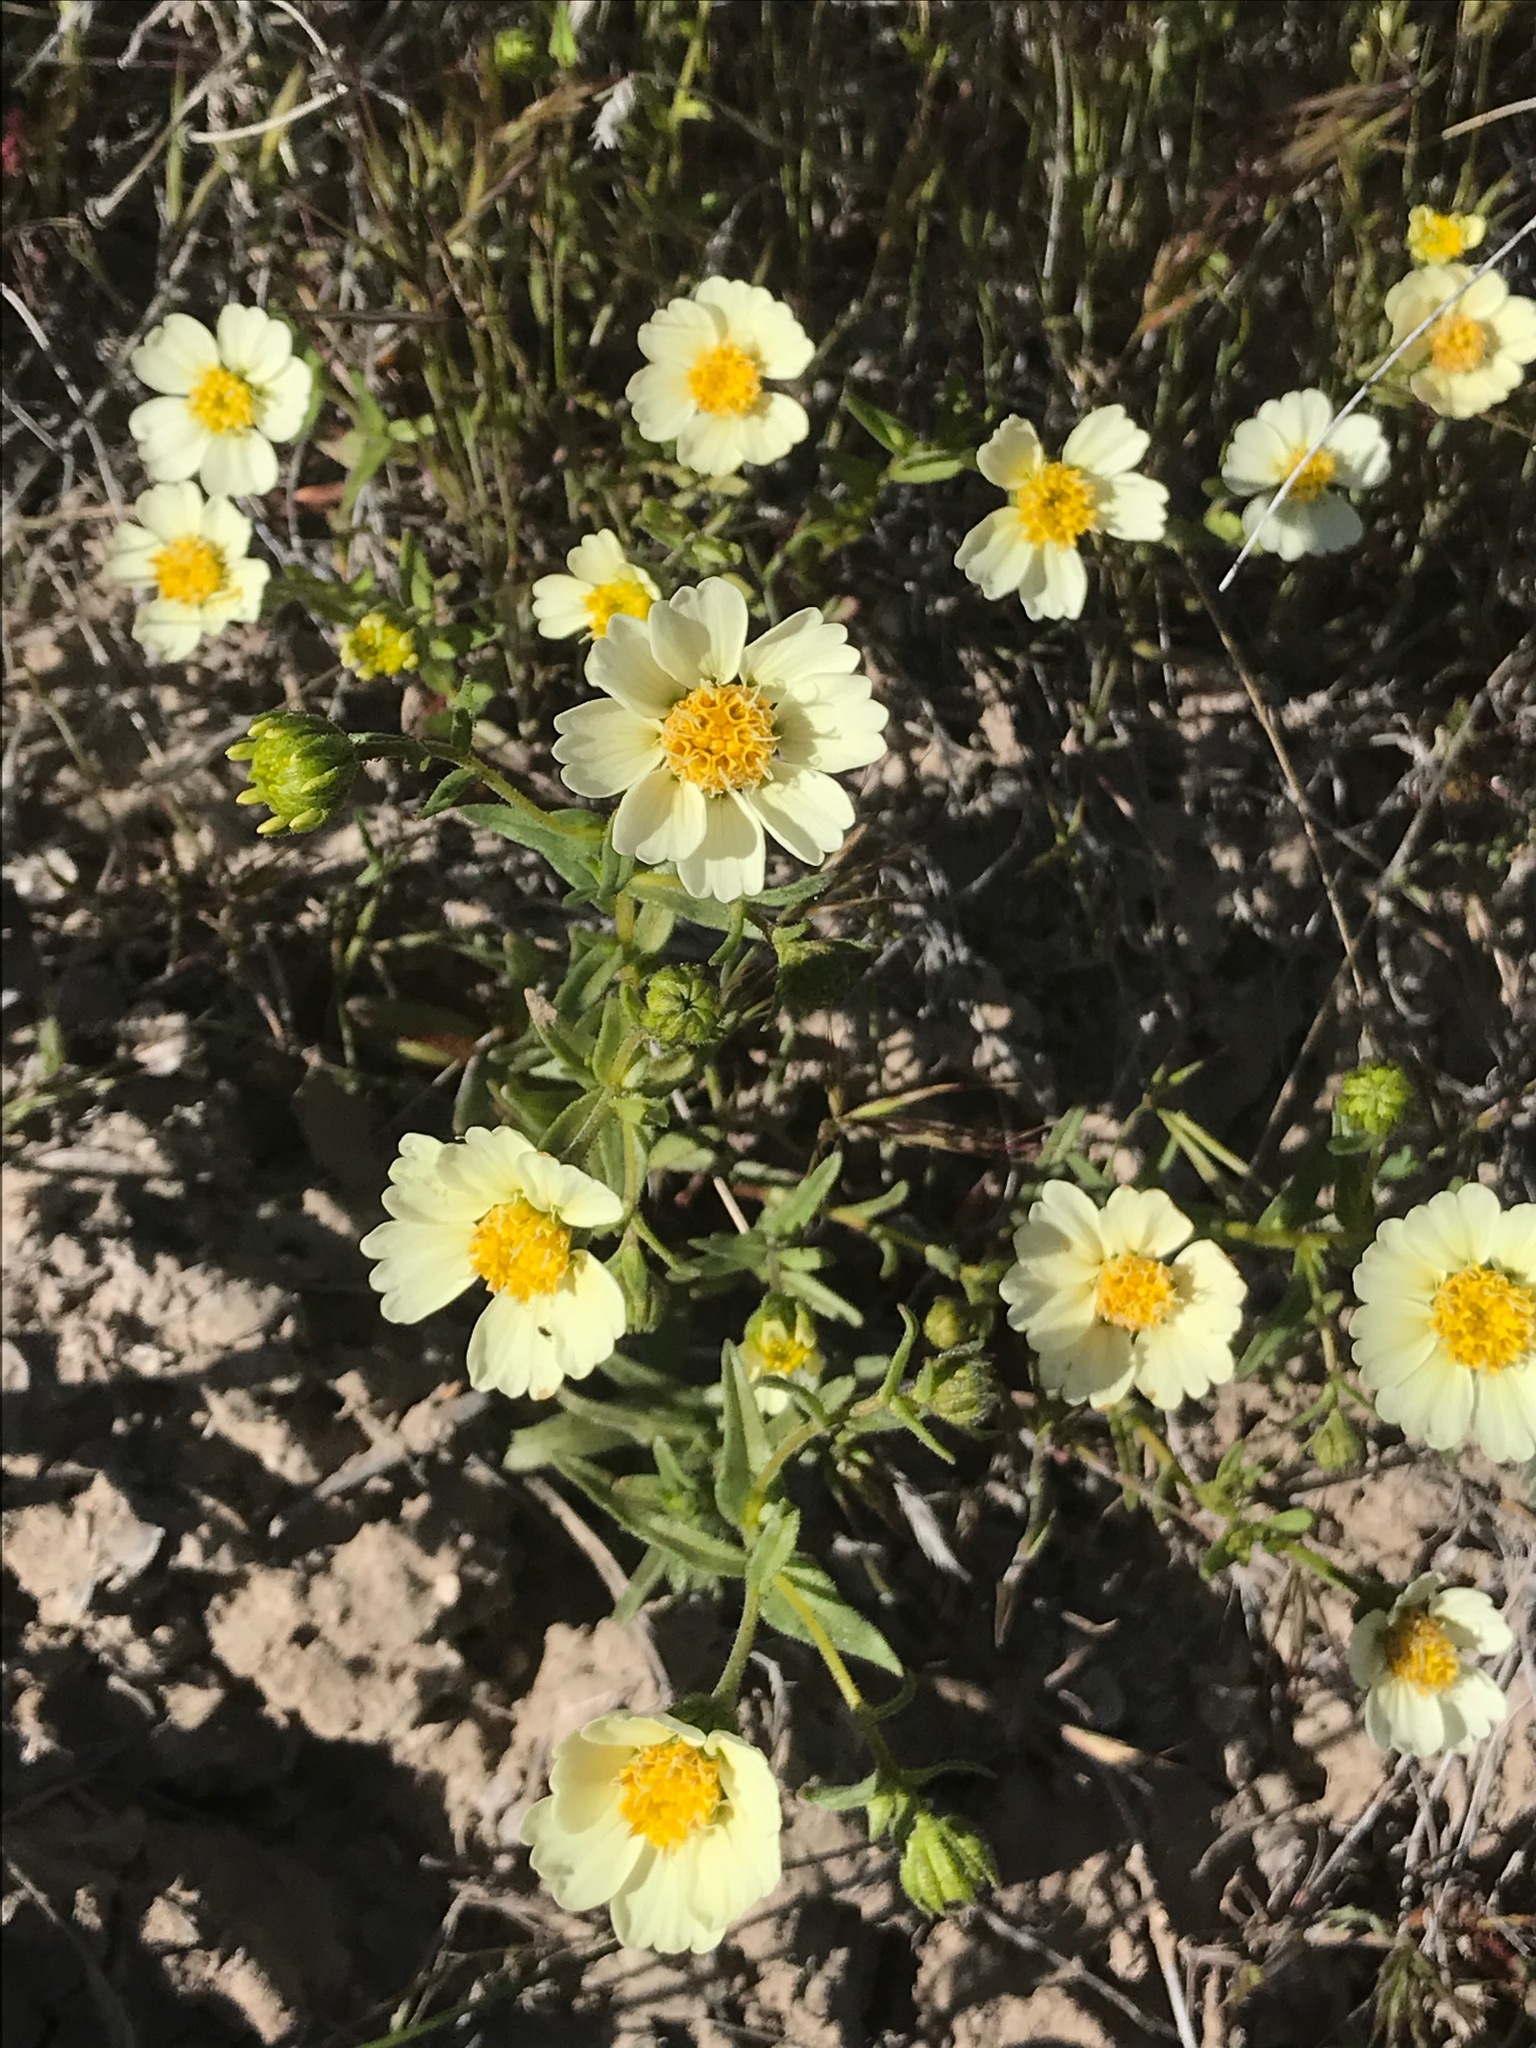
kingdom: Plantae
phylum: Tracheophyta
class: Magnoliopsida
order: Asterales
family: Asteraceae
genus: Layia
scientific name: Layia heterotricha
